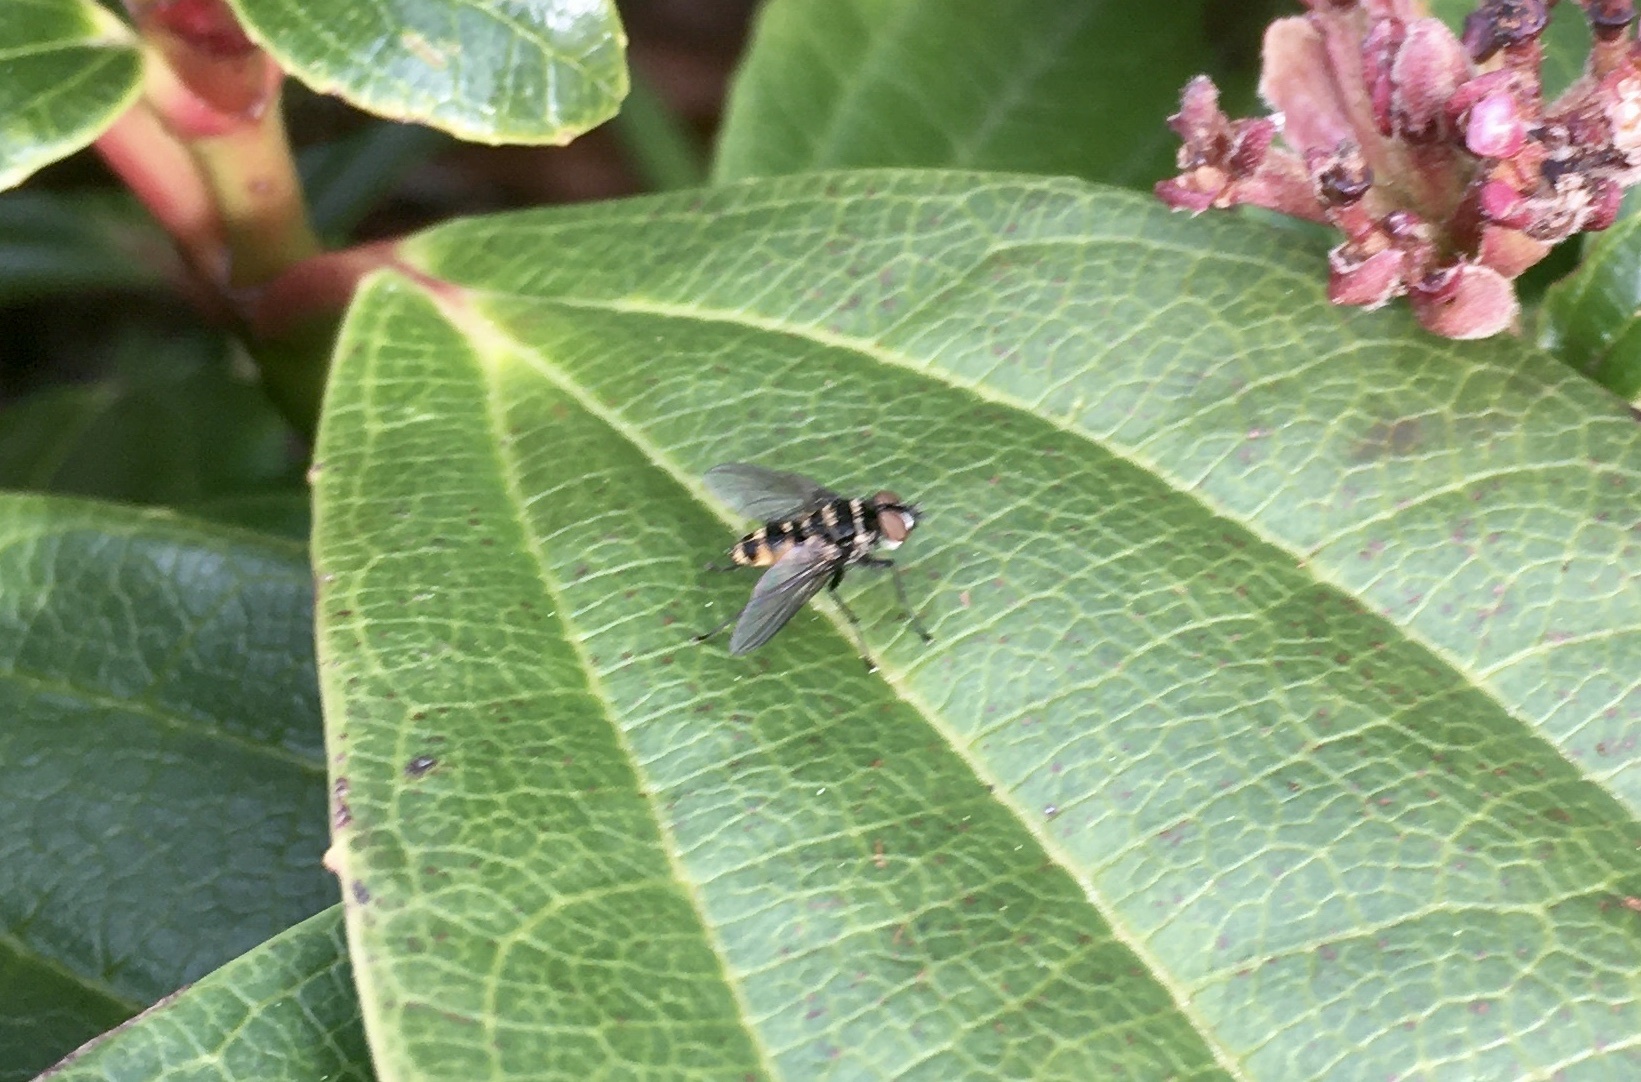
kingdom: Animalia
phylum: Arthropoda
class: Insecta
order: Diptera
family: Tachinidae
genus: Trigonospila
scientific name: Trigonospila brevifacies
